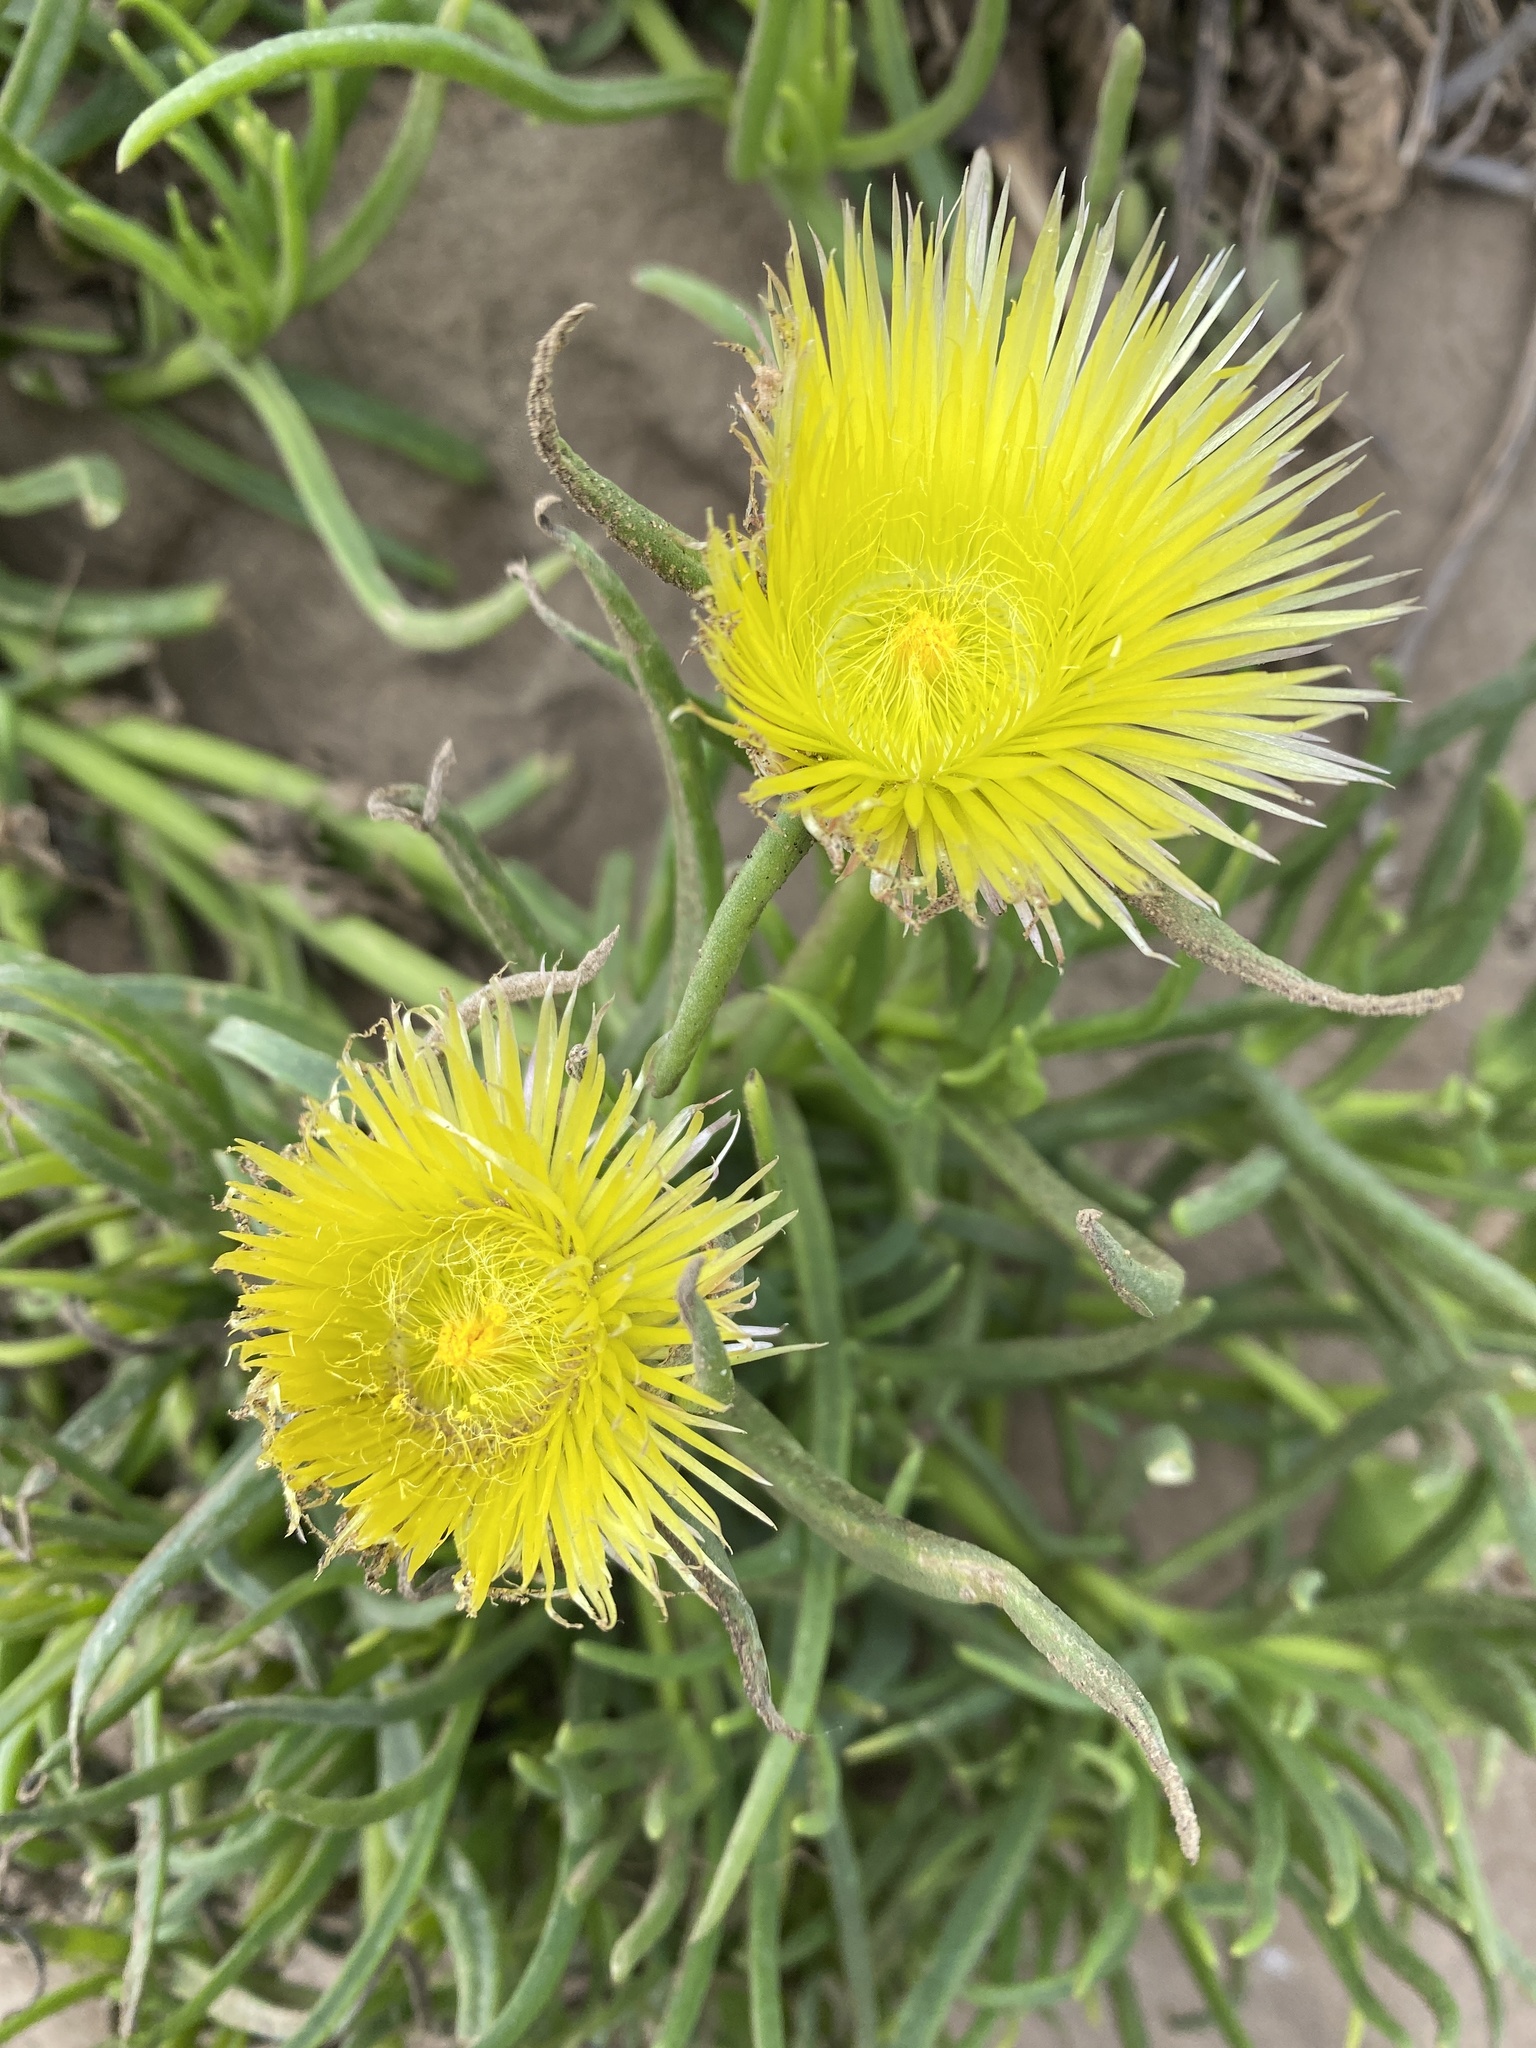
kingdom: Plantae
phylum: Tracheophyta
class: Magnoliopsida
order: Caryophyllales
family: Aizoaceae
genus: Conicosia
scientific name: Conicosia pugioniformis
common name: Narrow-leaved iceplant
